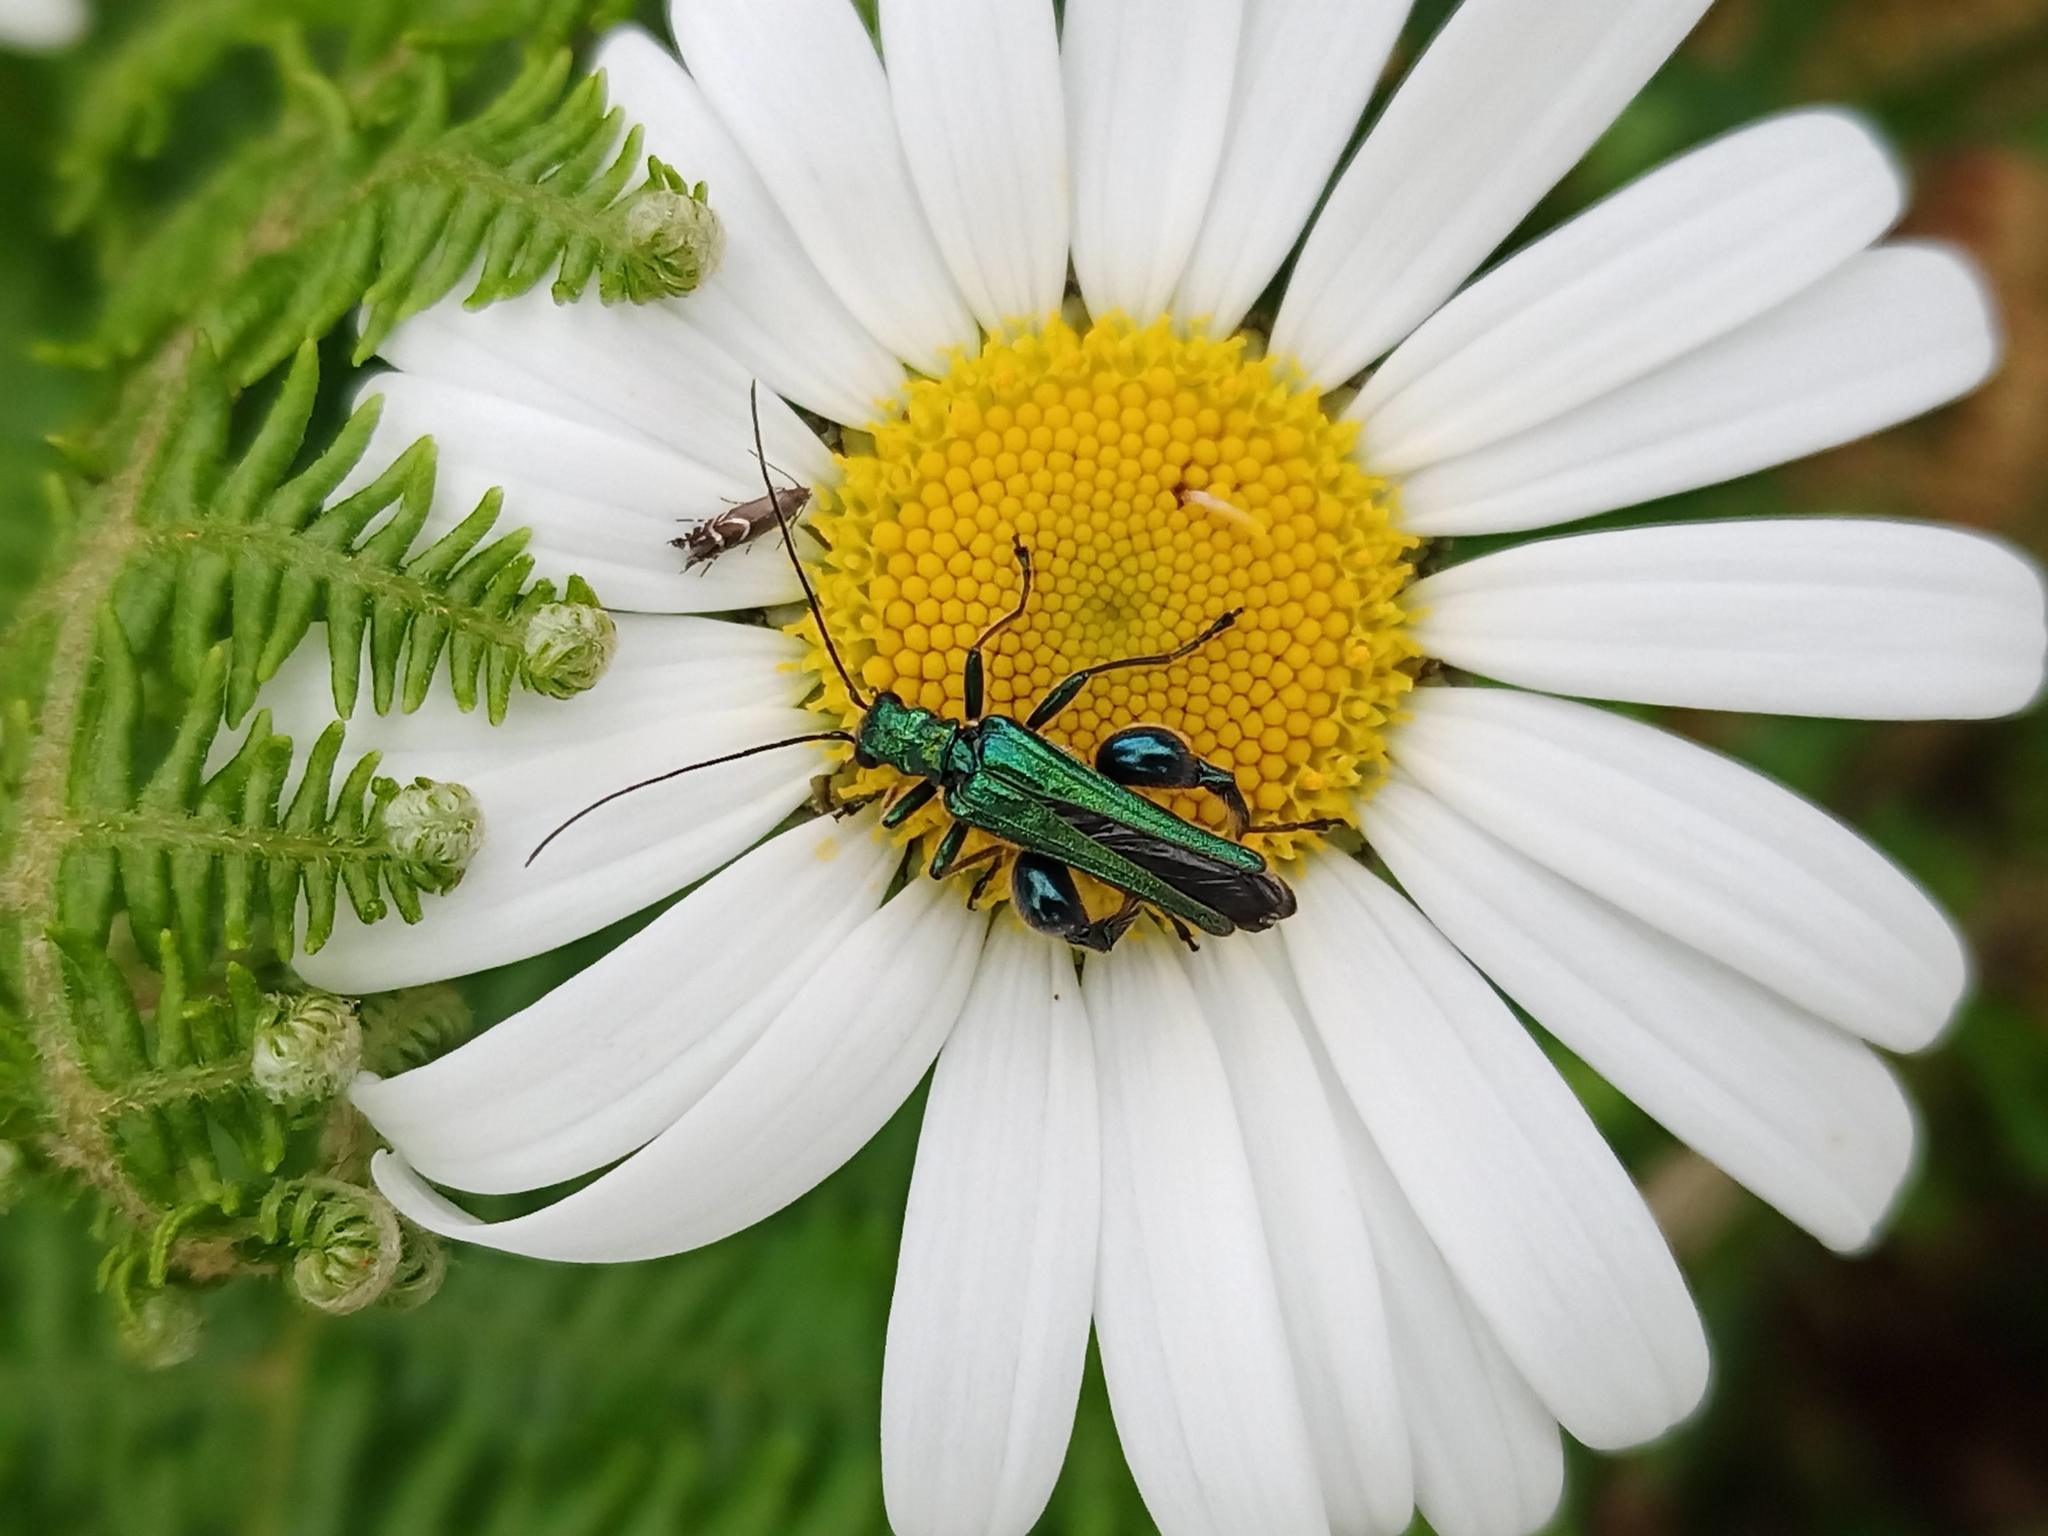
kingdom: Animalia
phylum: Arthropoda
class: Insecta
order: Coleoptera
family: Oedemeridae
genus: Oedemera
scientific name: Oedemera nobilis
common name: Swollen-thighed beetle
